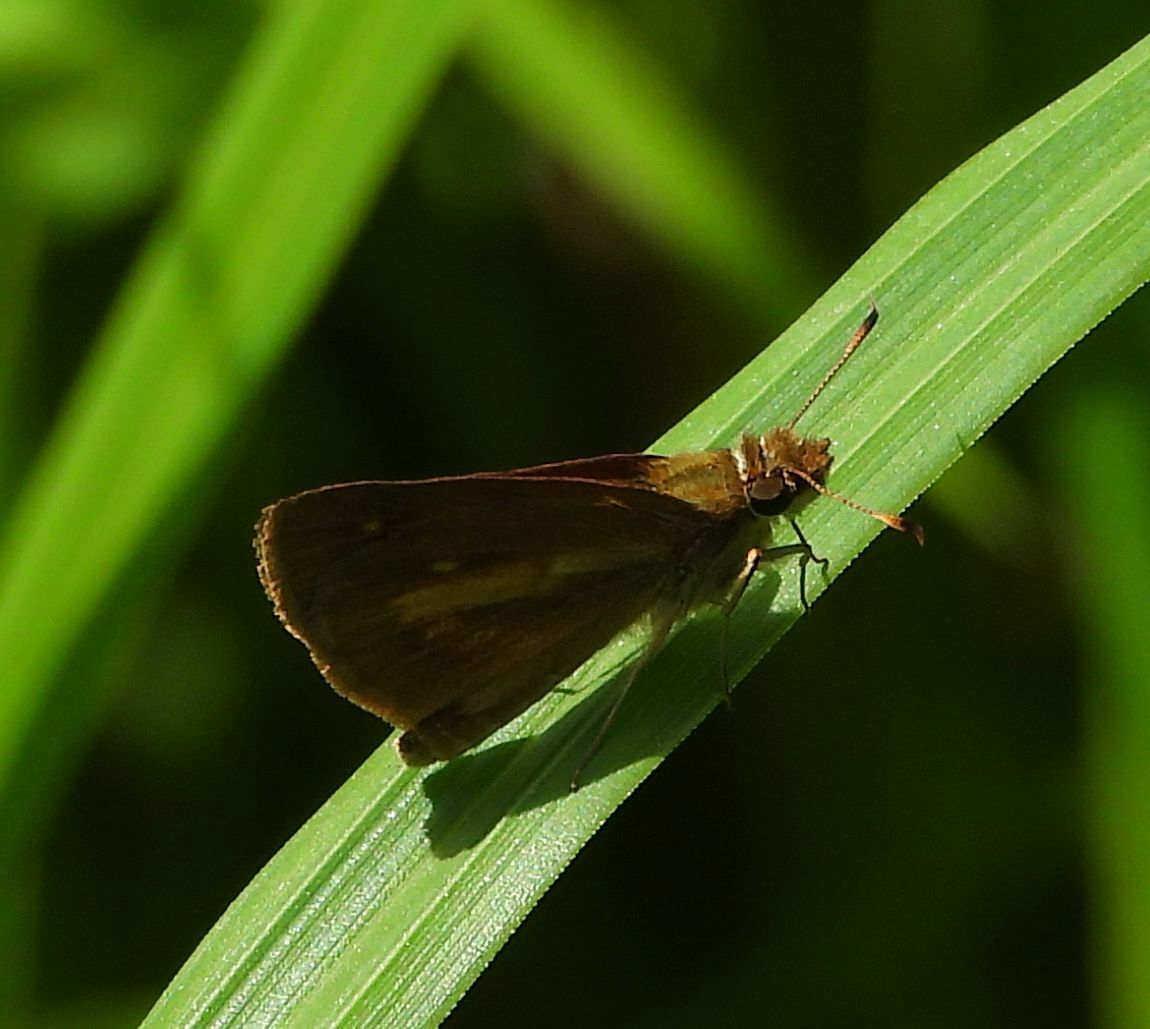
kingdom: Animalia
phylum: Arthropoda
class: Insecta
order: Lepidoptera
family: Hesperiidae
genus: Poanes
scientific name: Poanes viator
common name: Broad-winged skipper
